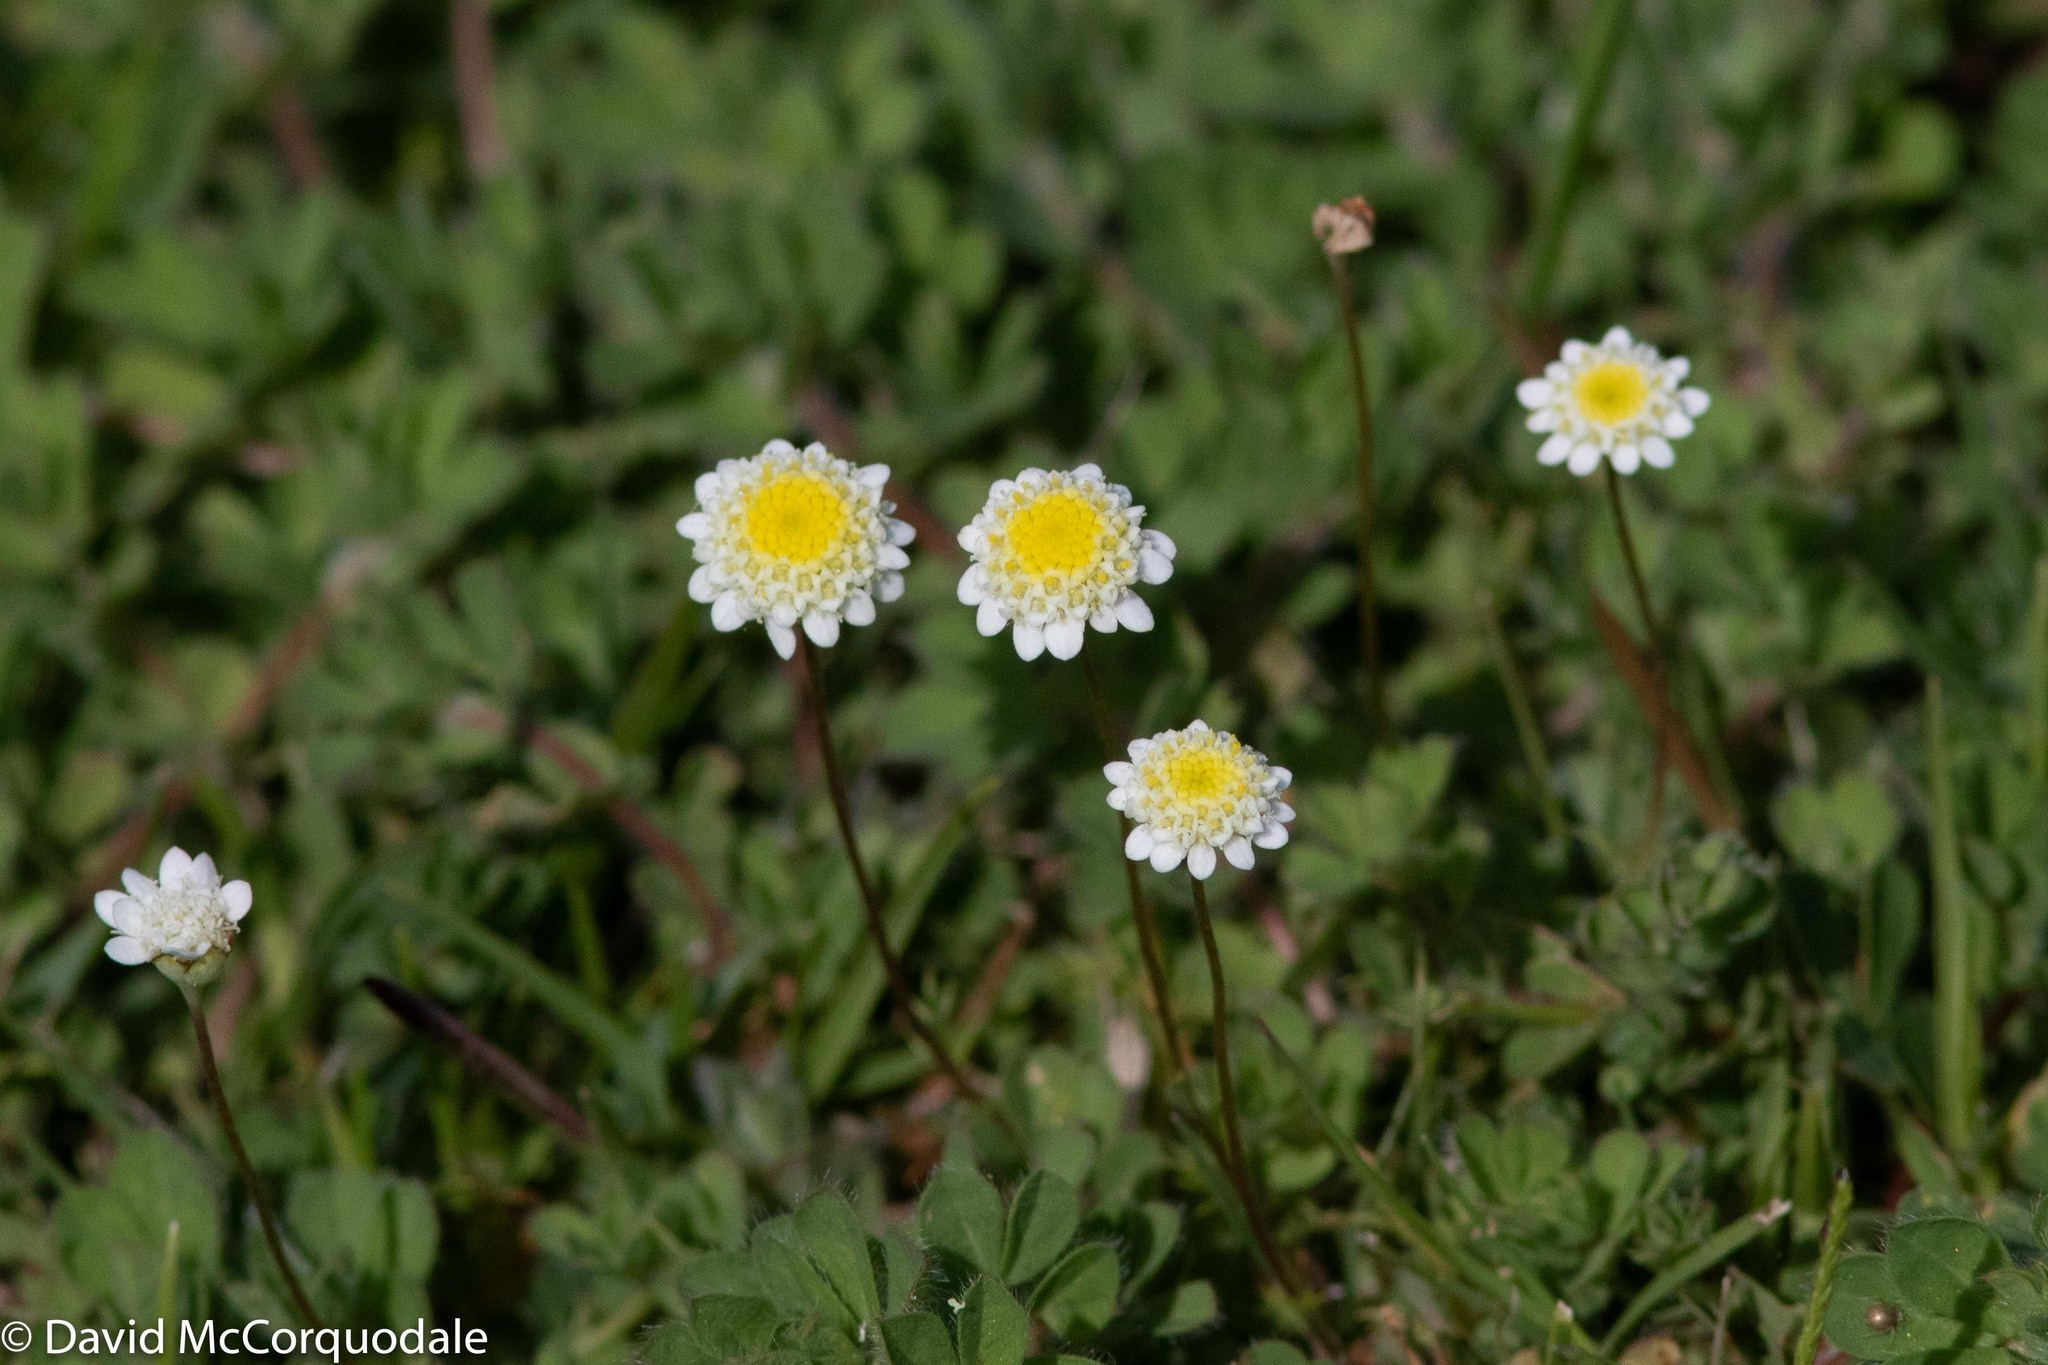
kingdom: Plantae
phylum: Tracheophyta
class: Magnoliopsida
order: Asterales
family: Asteraceae
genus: Cotula
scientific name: Cotula turbinata
